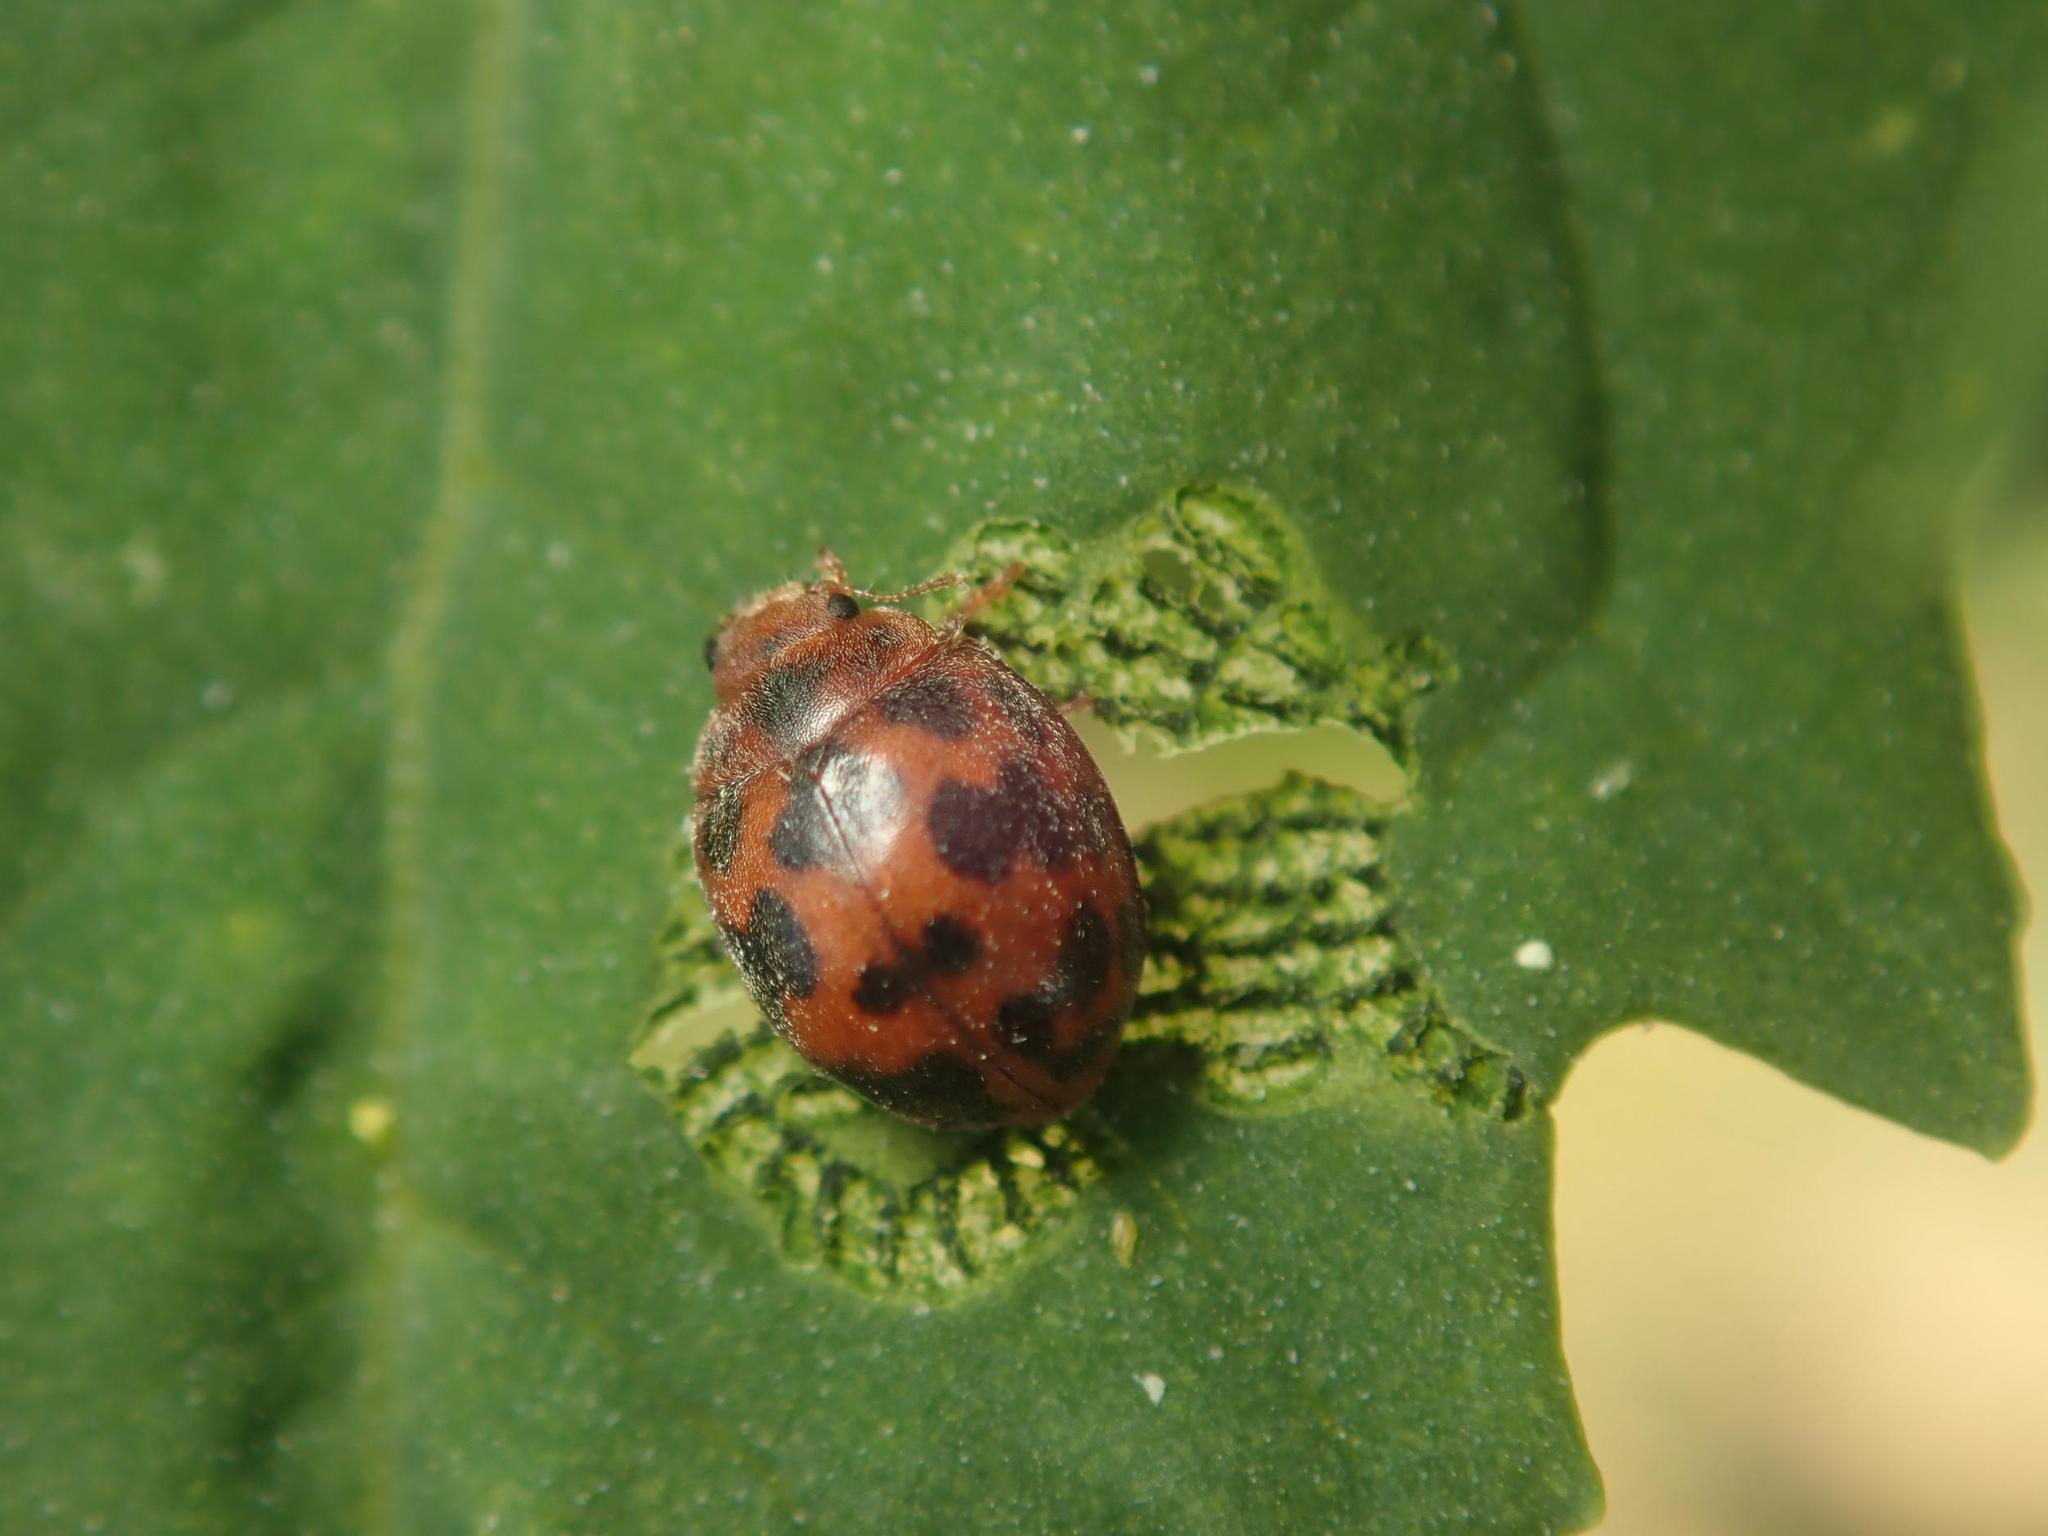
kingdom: Animalia
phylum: Arthropoda
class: Insecta
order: Coleoptera
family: Coccinellidae
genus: Subcoccinella
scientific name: Subcoccinella vigintiquatuorpunctata
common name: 24-spot ladybird
